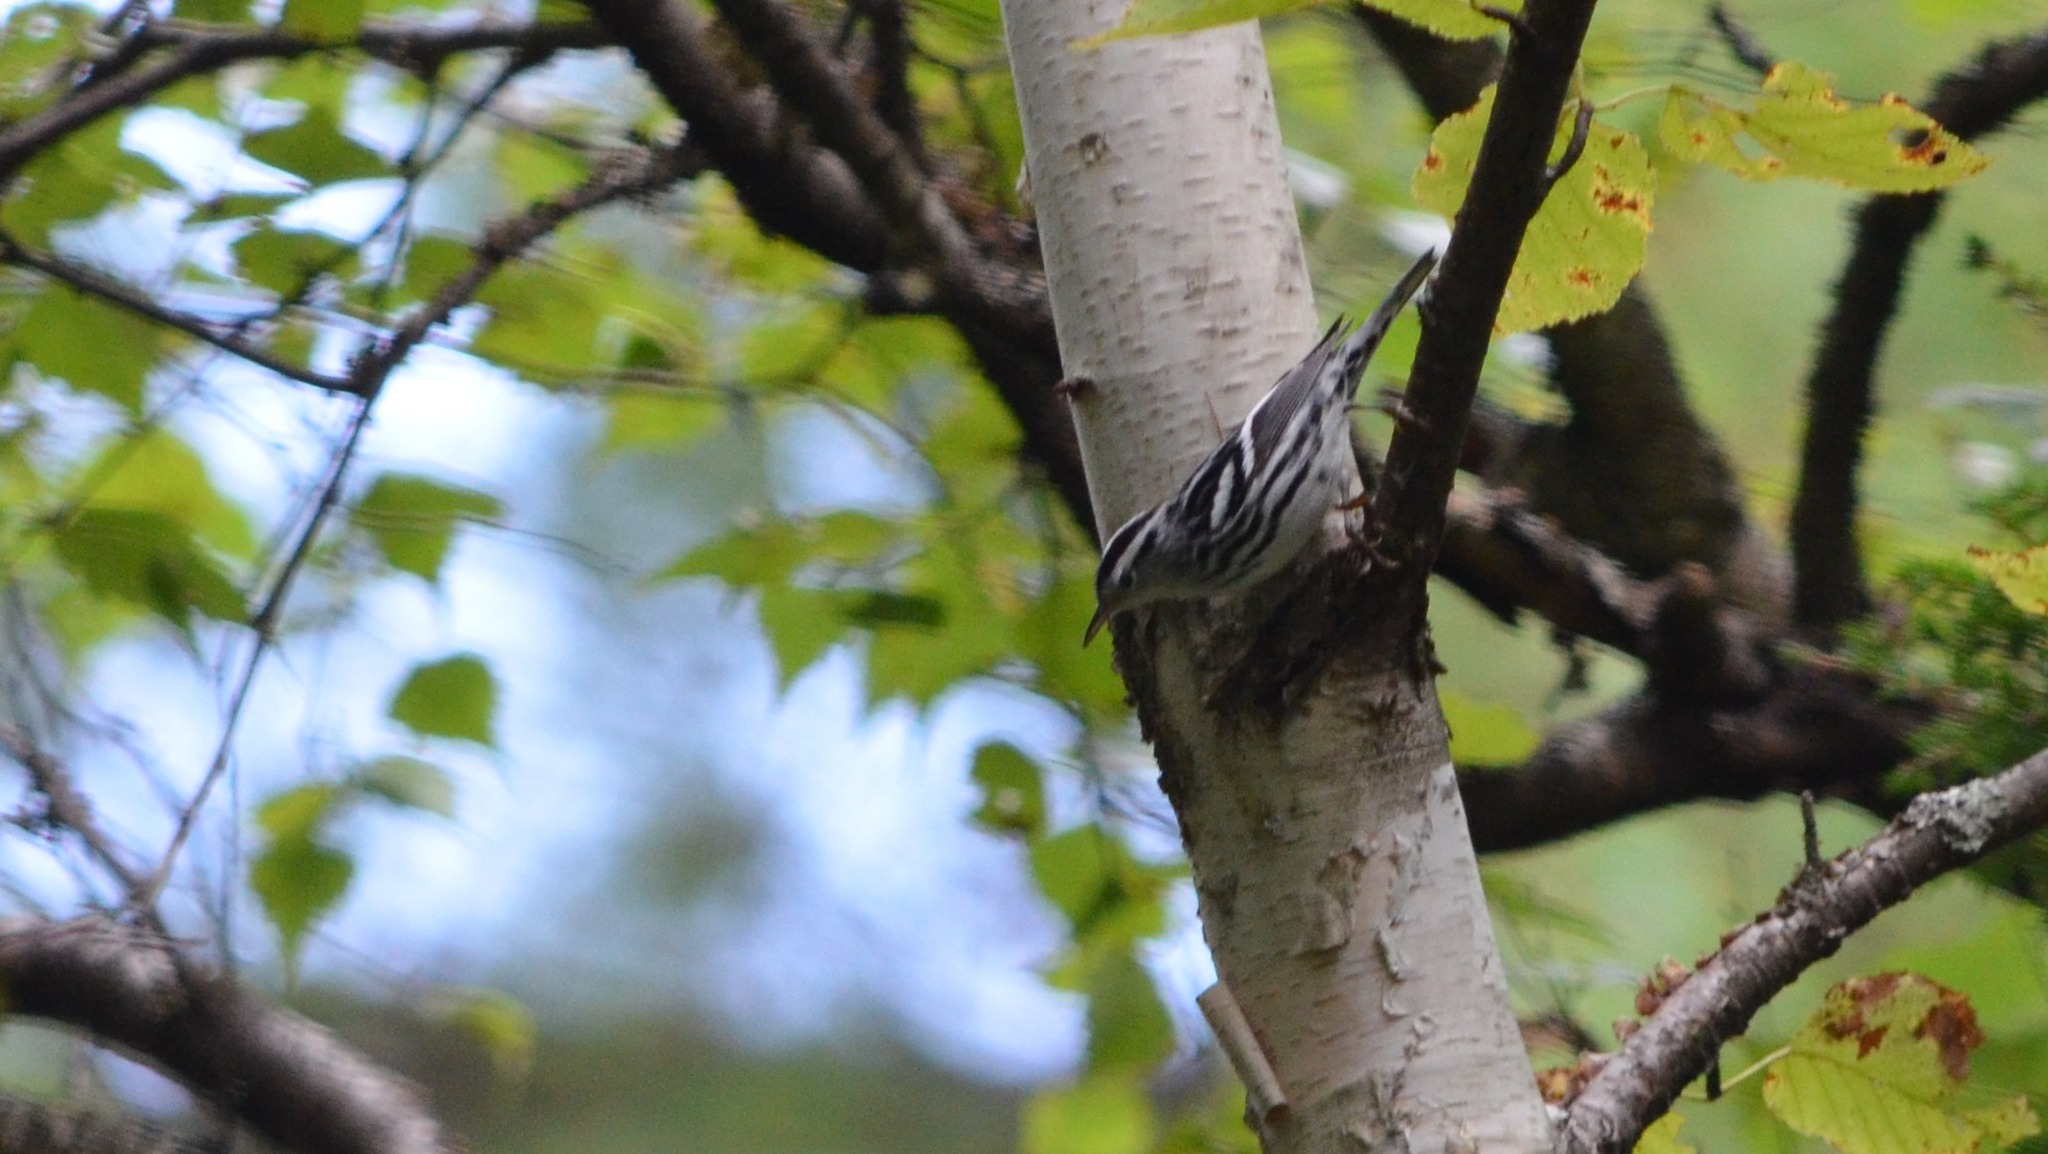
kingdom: Animalia
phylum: Chordata
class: Aves
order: Passeriformes
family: Parulidae
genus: Mniotilta
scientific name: Mniotilta varia
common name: Black-and-white warbler
